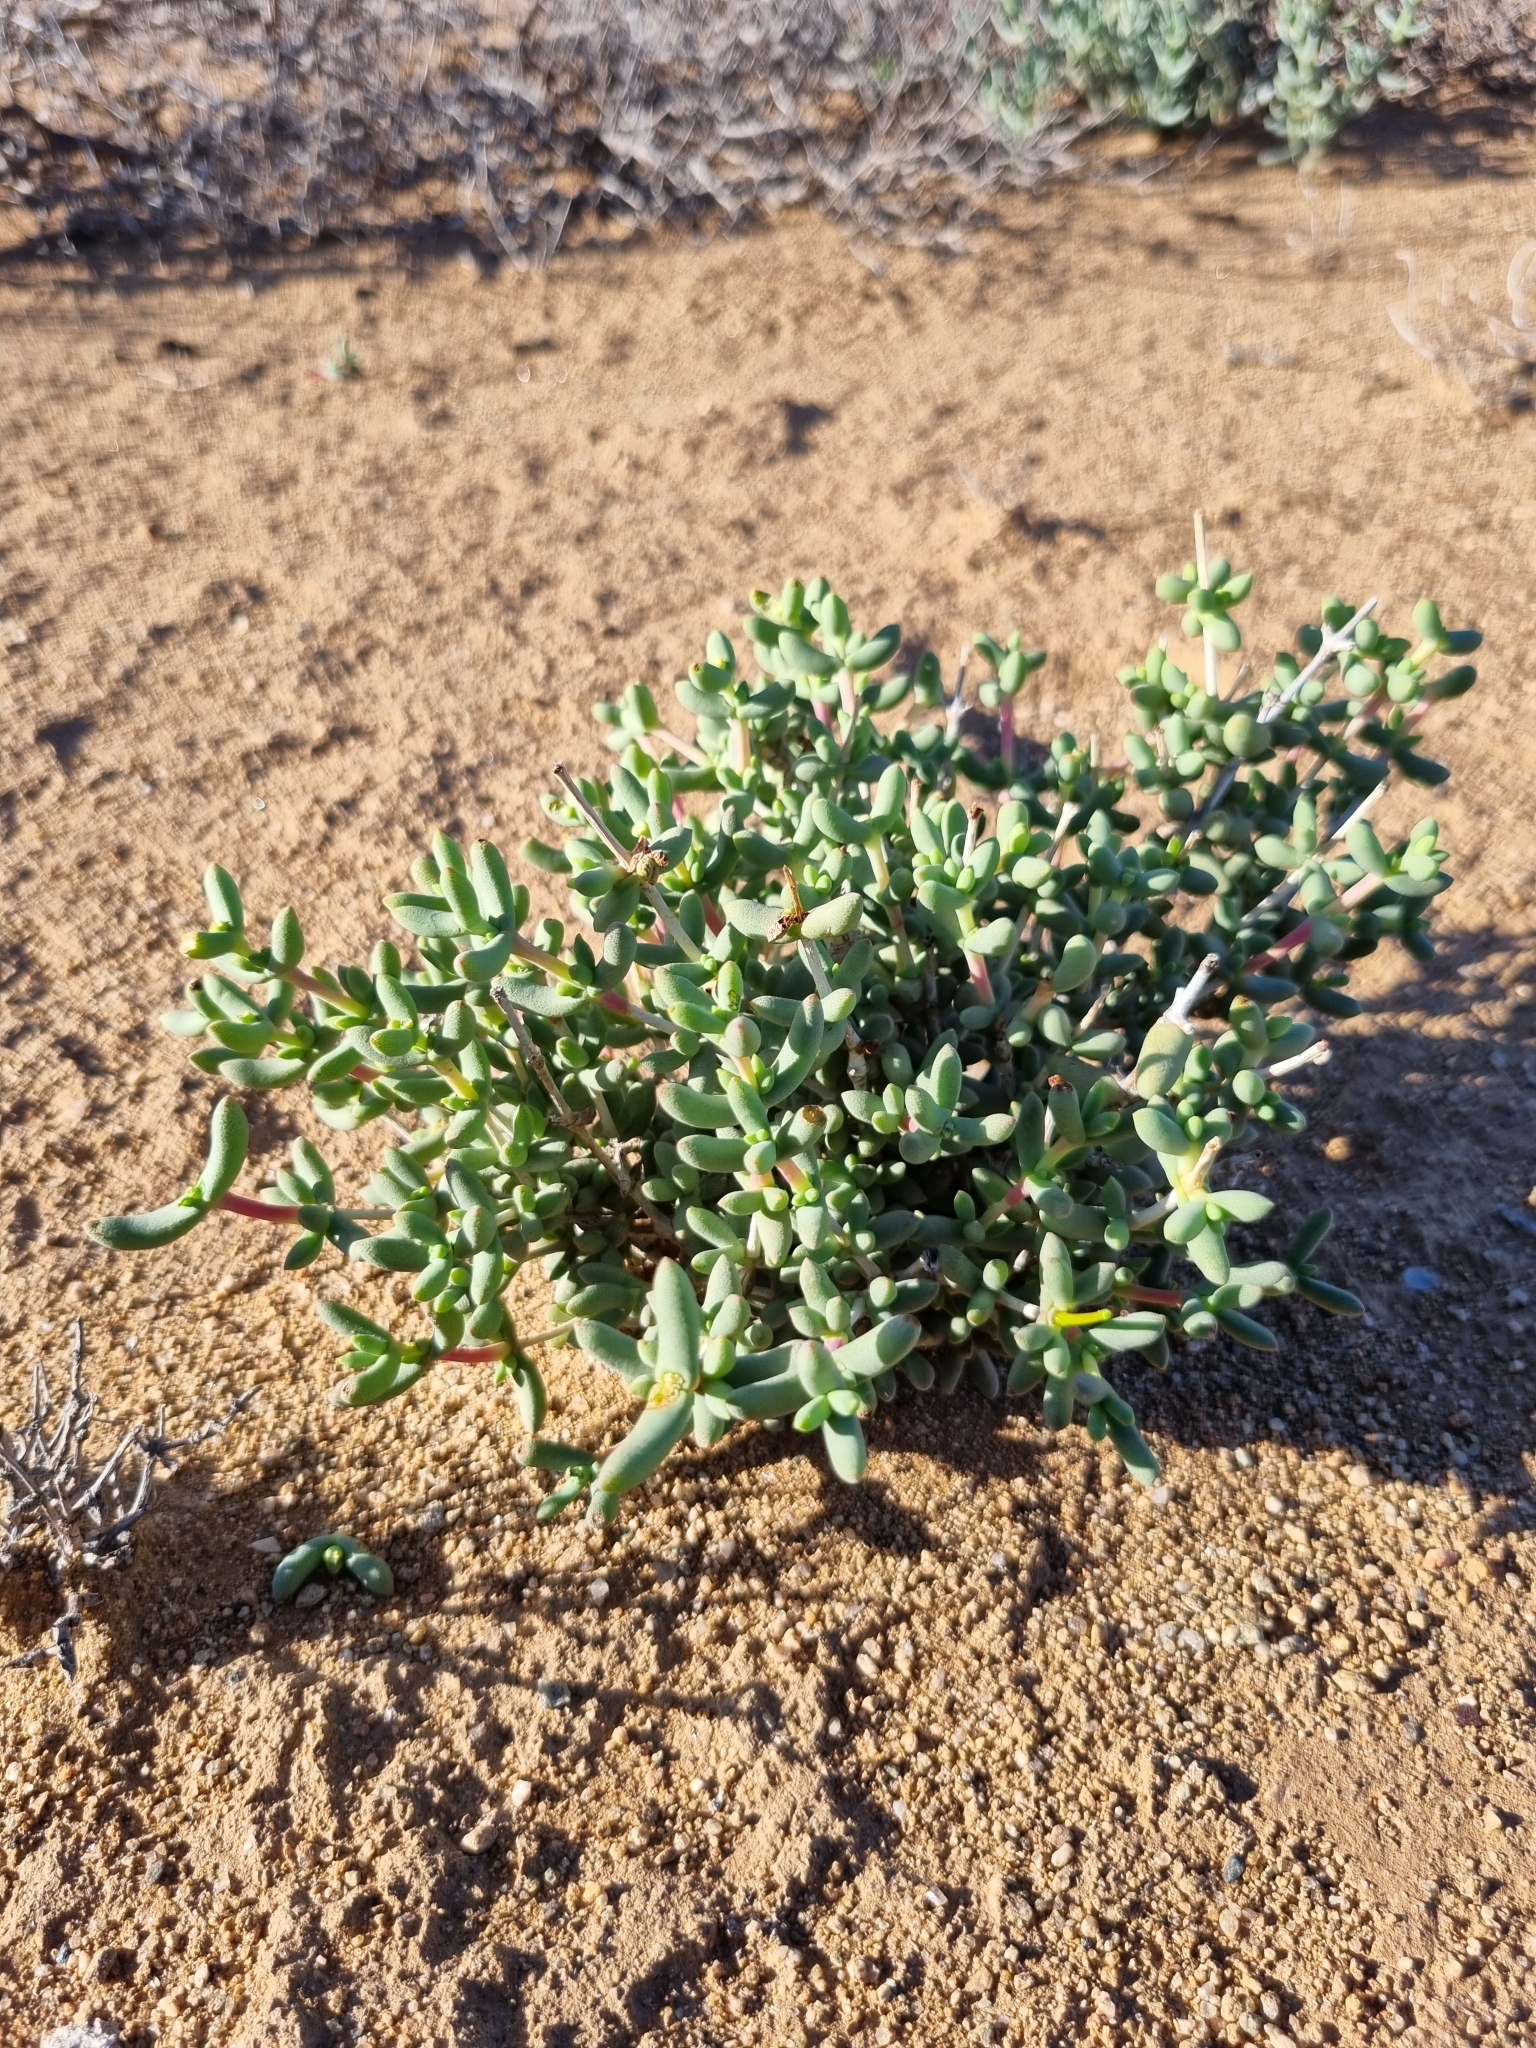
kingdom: Plantae
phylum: Tracheophyta
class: Magnoliopsida
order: Caryophyllales
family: Aizoaceae
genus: Leipoldtia
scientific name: Leipoldtia schultzei
